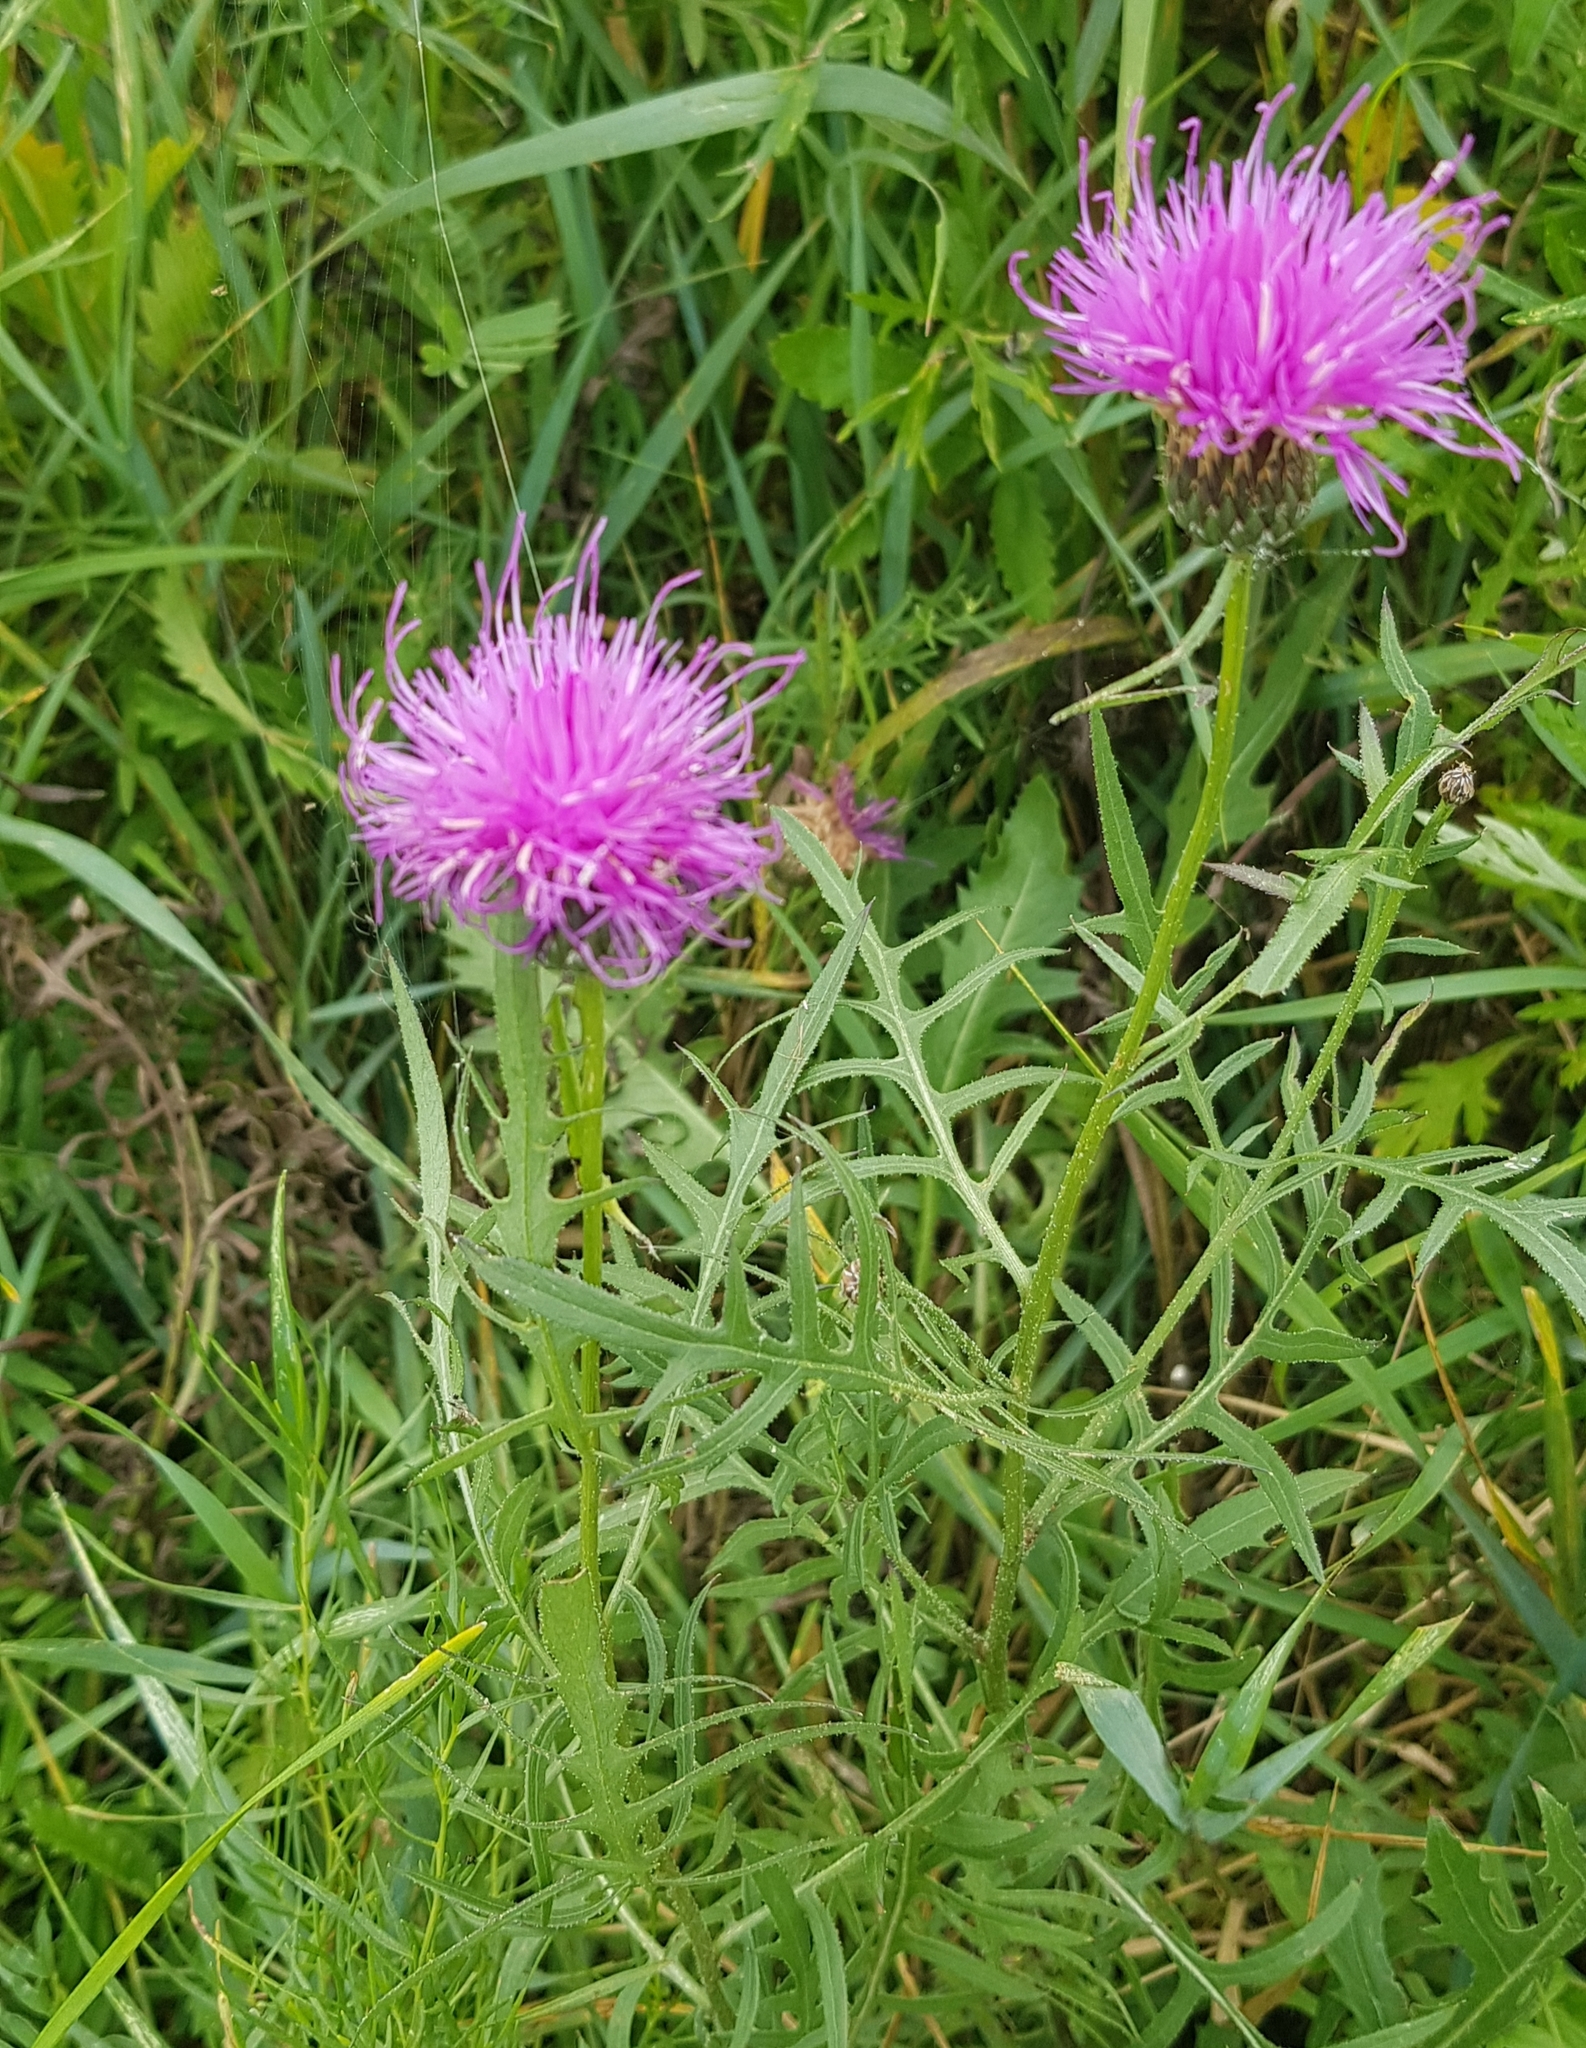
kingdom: Plantae
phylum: Tracheophyta
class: Magnoliopsida
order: Asterales
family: Asteraceae
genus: Klasea
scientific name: Klasea cardunculus
